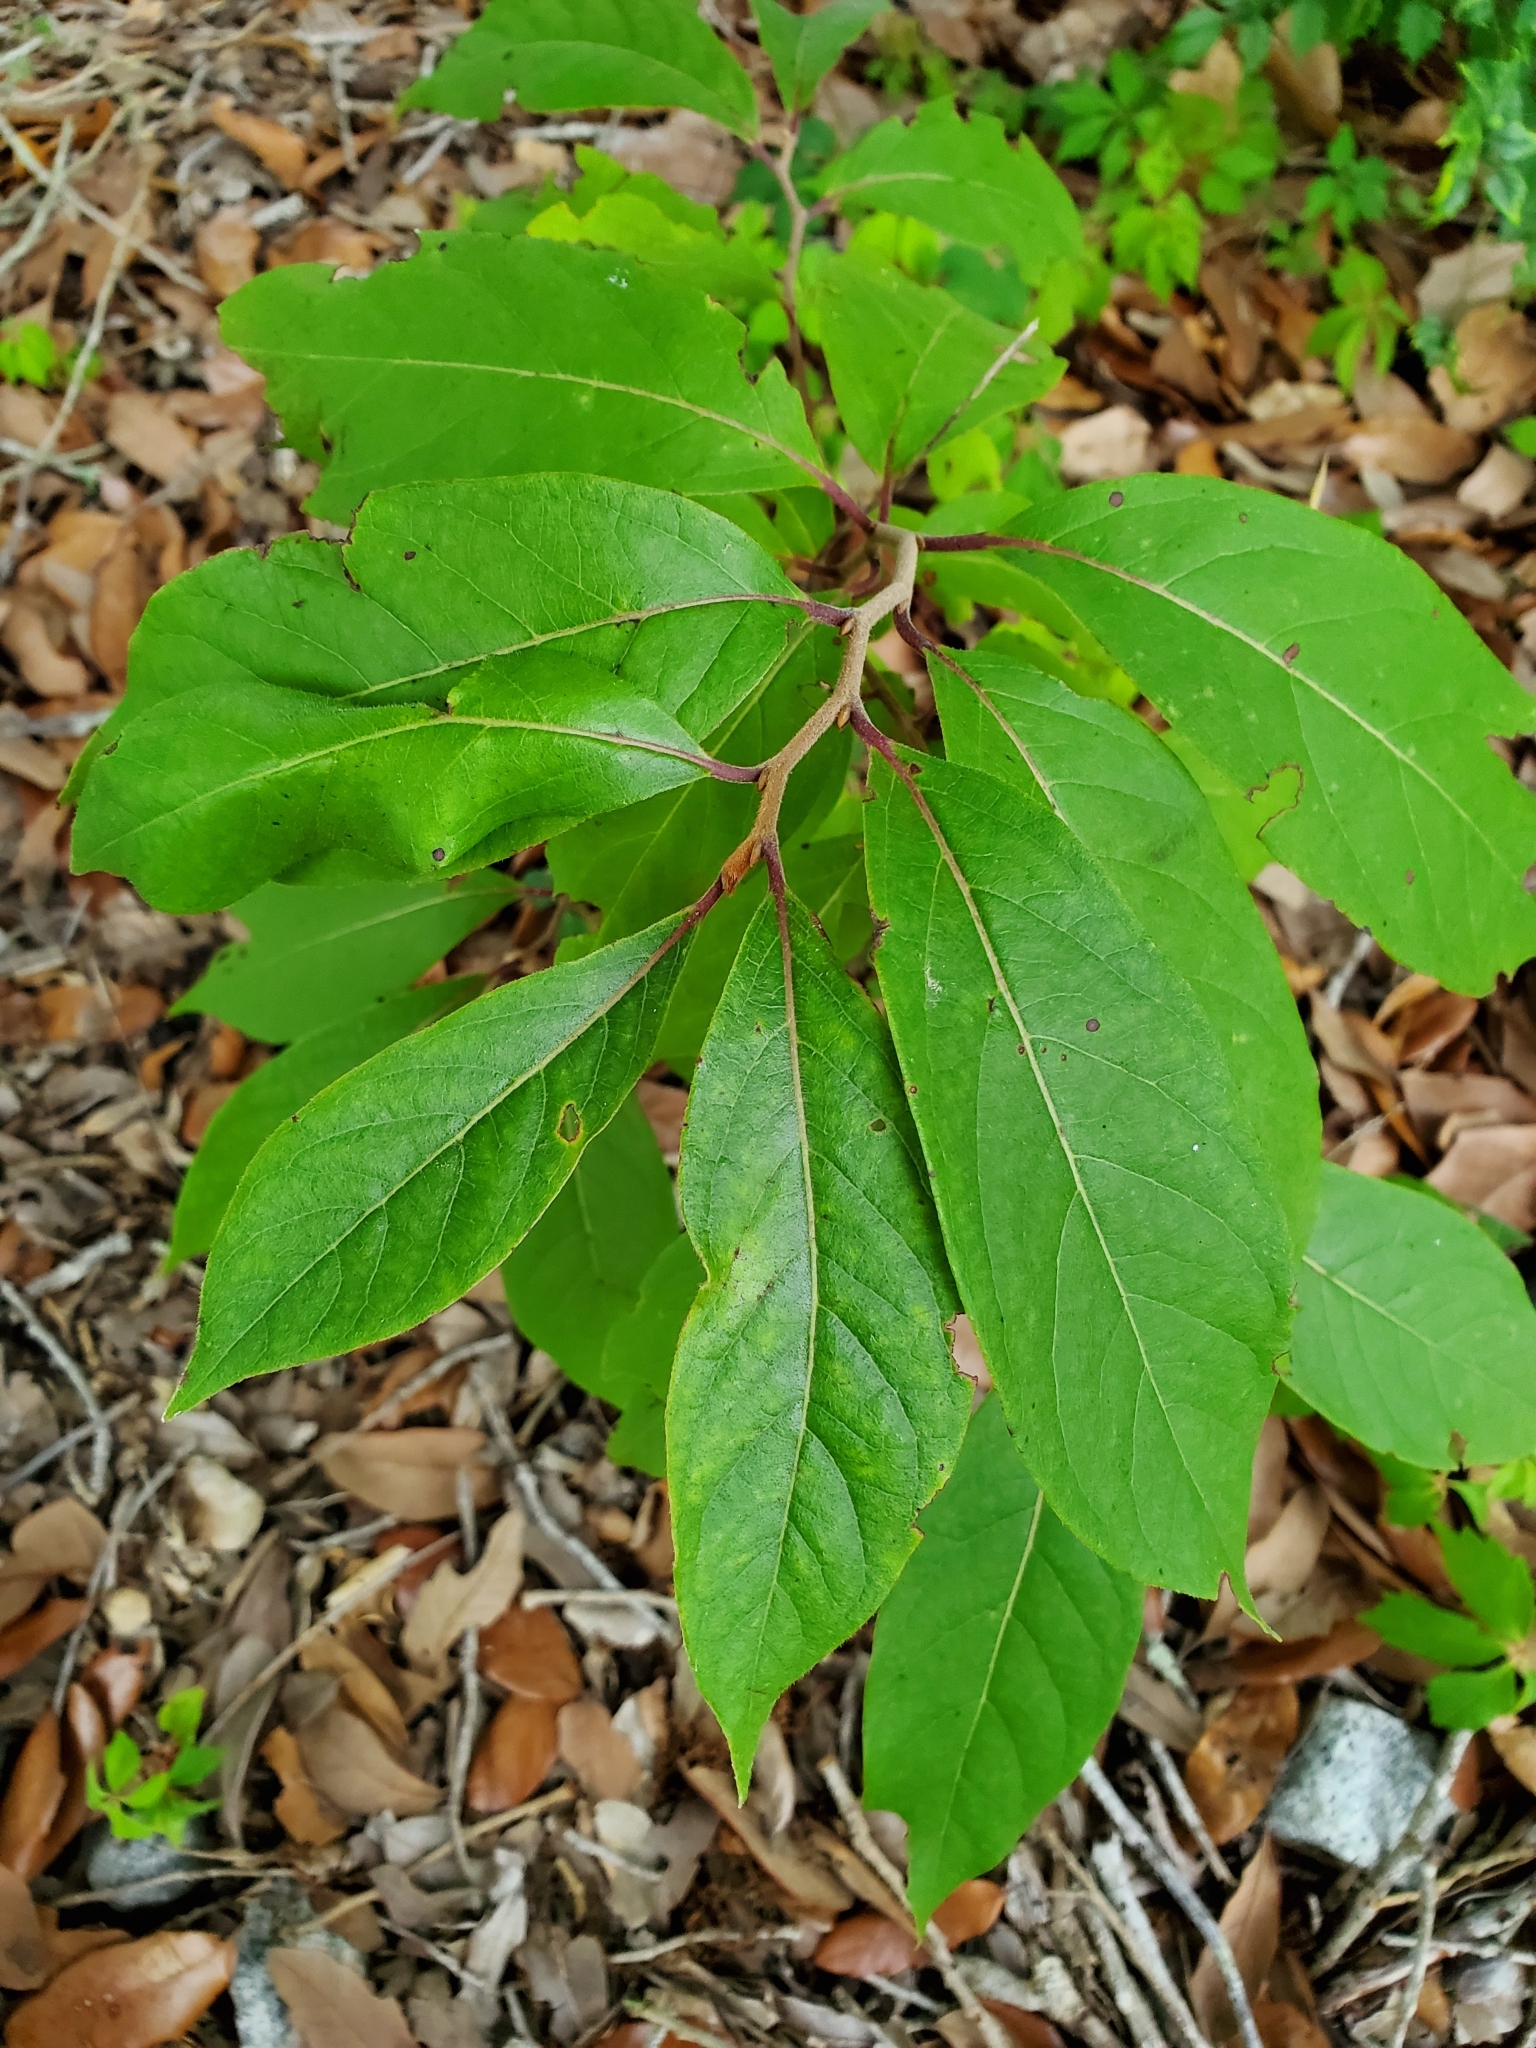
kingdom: Plantae
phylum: Tracheophyta
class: Magnoliopsida
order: Ericales
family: Ebenaceae
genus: Diospyros
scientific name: Diospyros virginiana
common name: Persimmon
